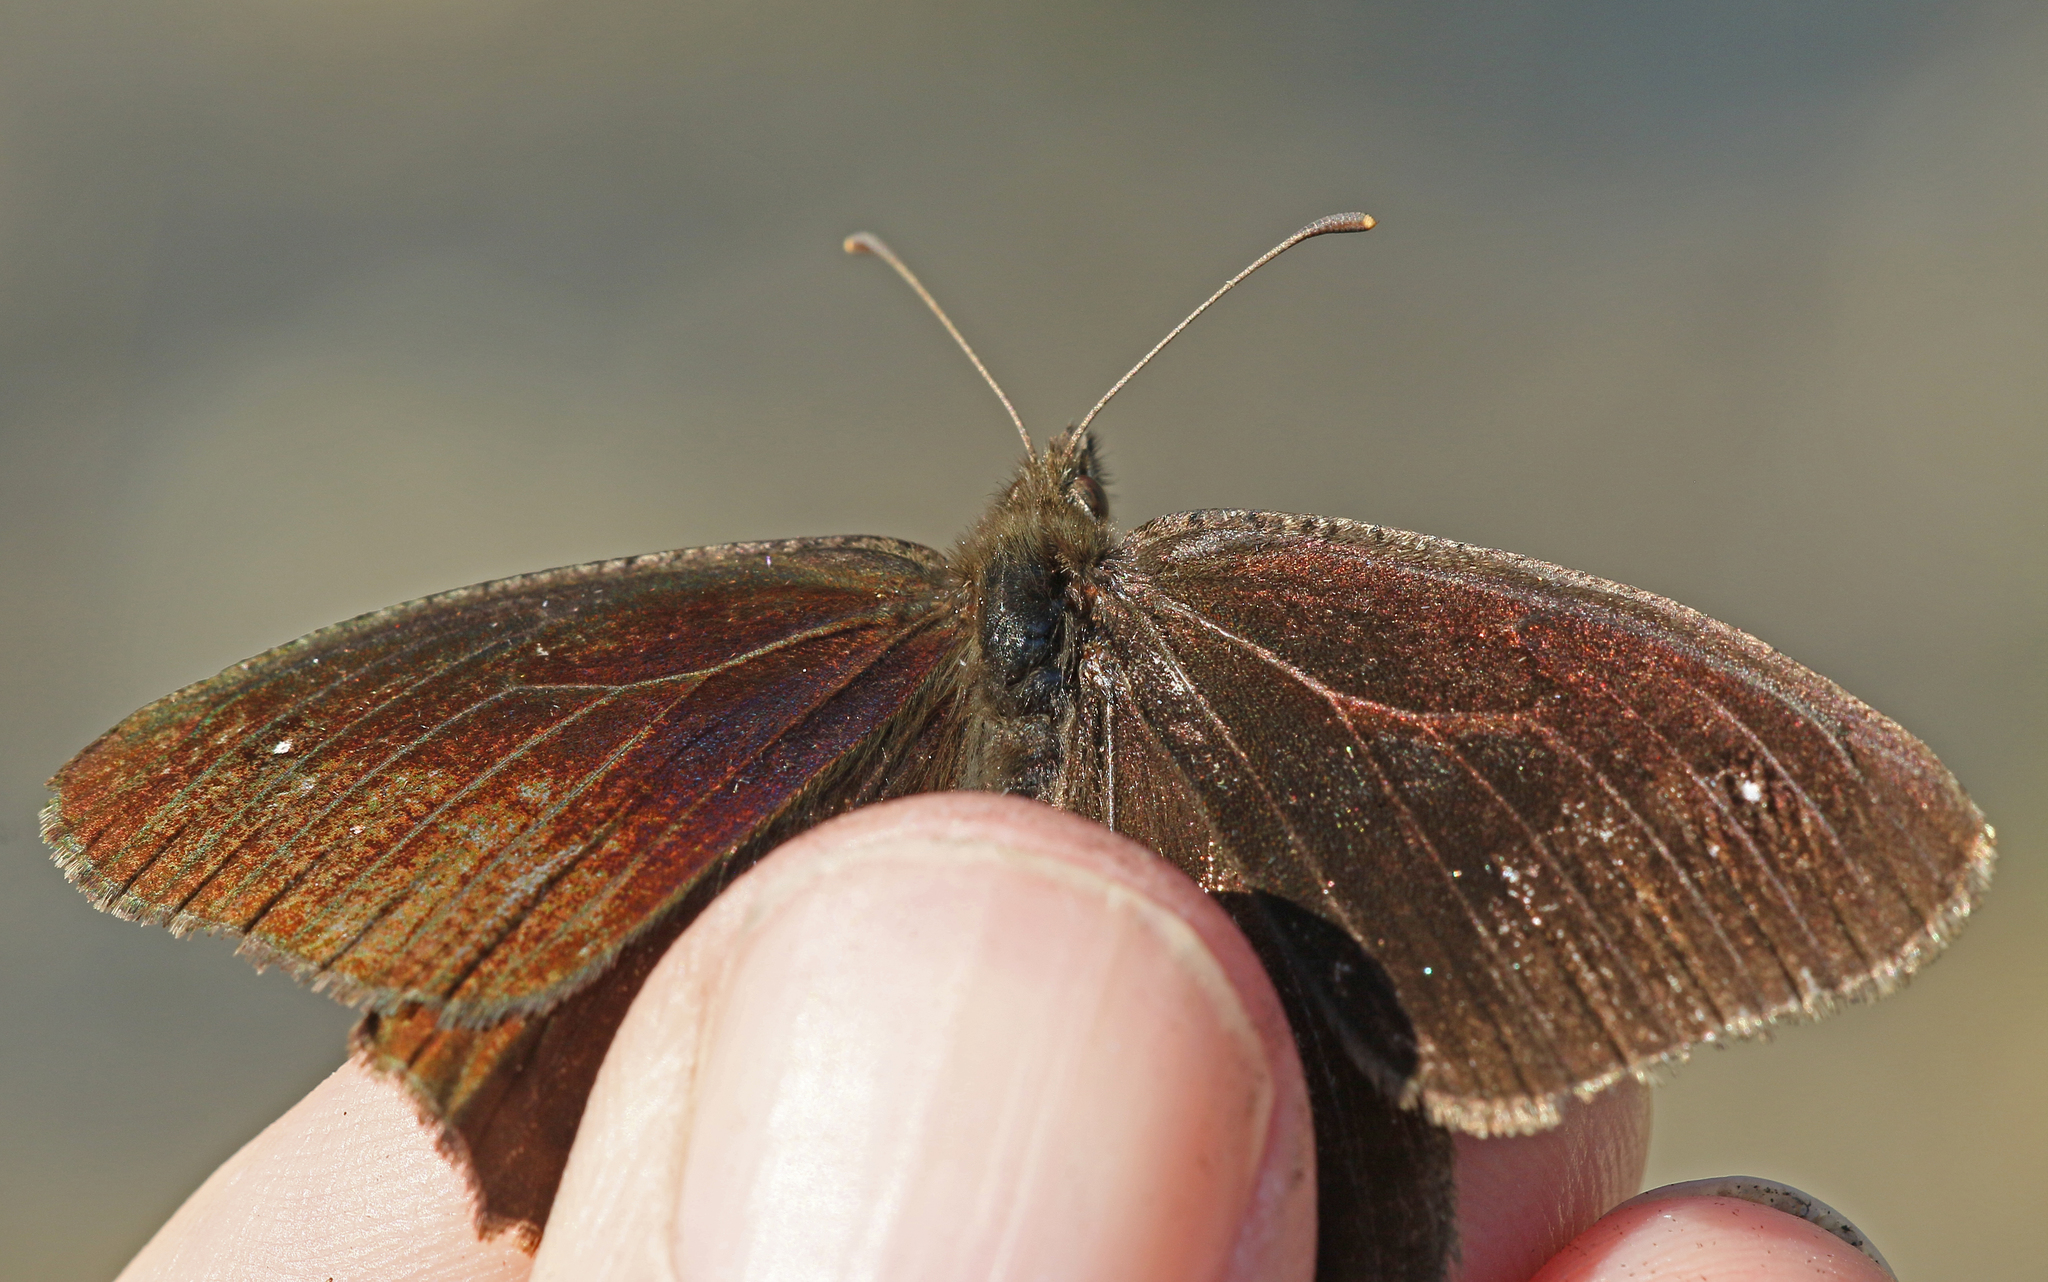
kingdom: Animalia
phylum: Arthropoda
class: Insecta
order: Lepidoptera
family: Nymphalidae
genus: Satyrus
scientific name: Satyrus actaea
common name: Black satyr
